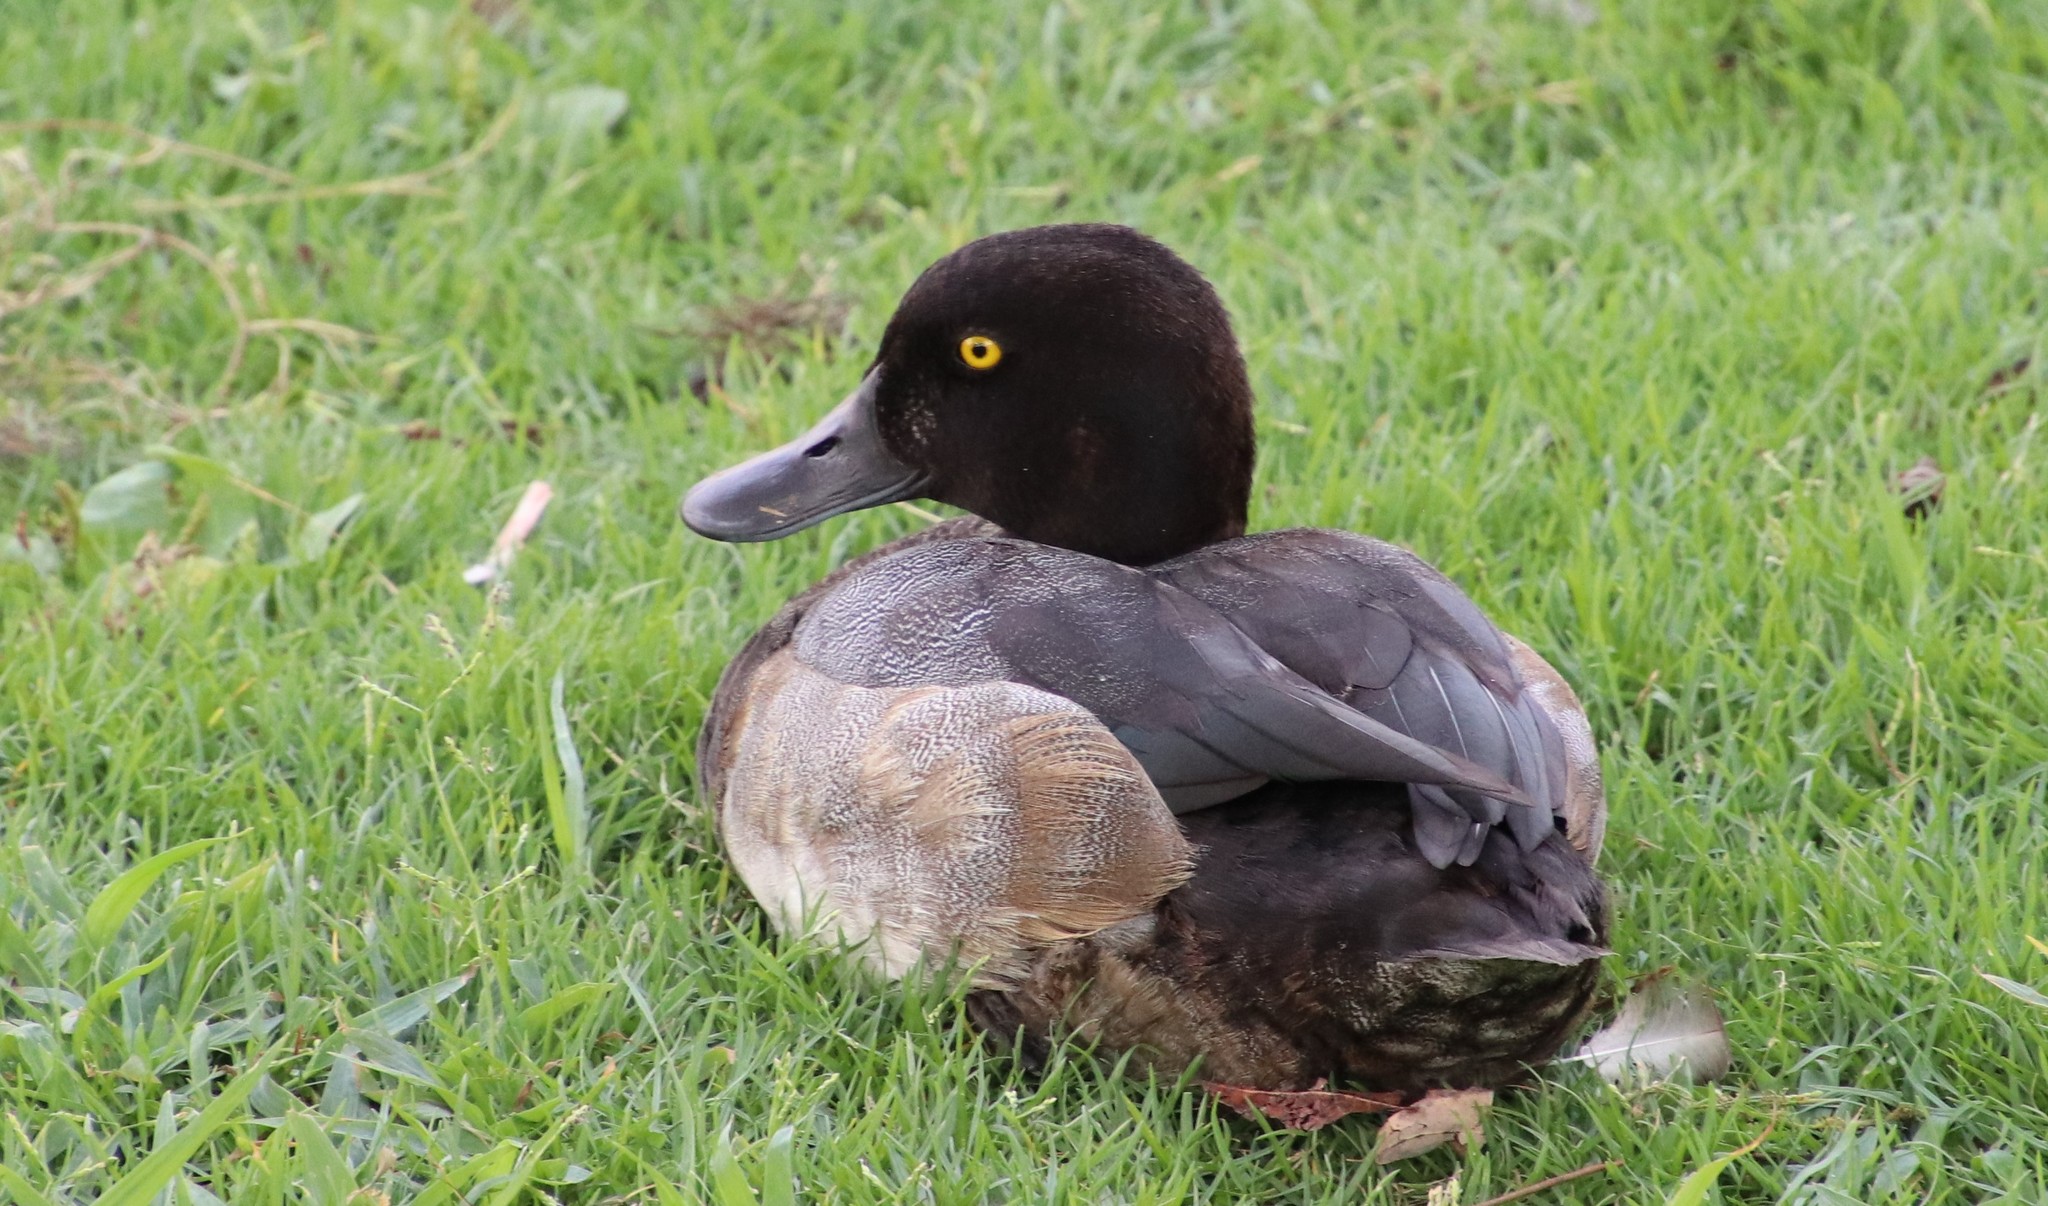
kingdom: Animalia
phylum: Chordata
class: Aves
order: Anseriformes
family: Anatidae
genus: Aythya
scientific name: Aythya marila
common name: Greater scaup
